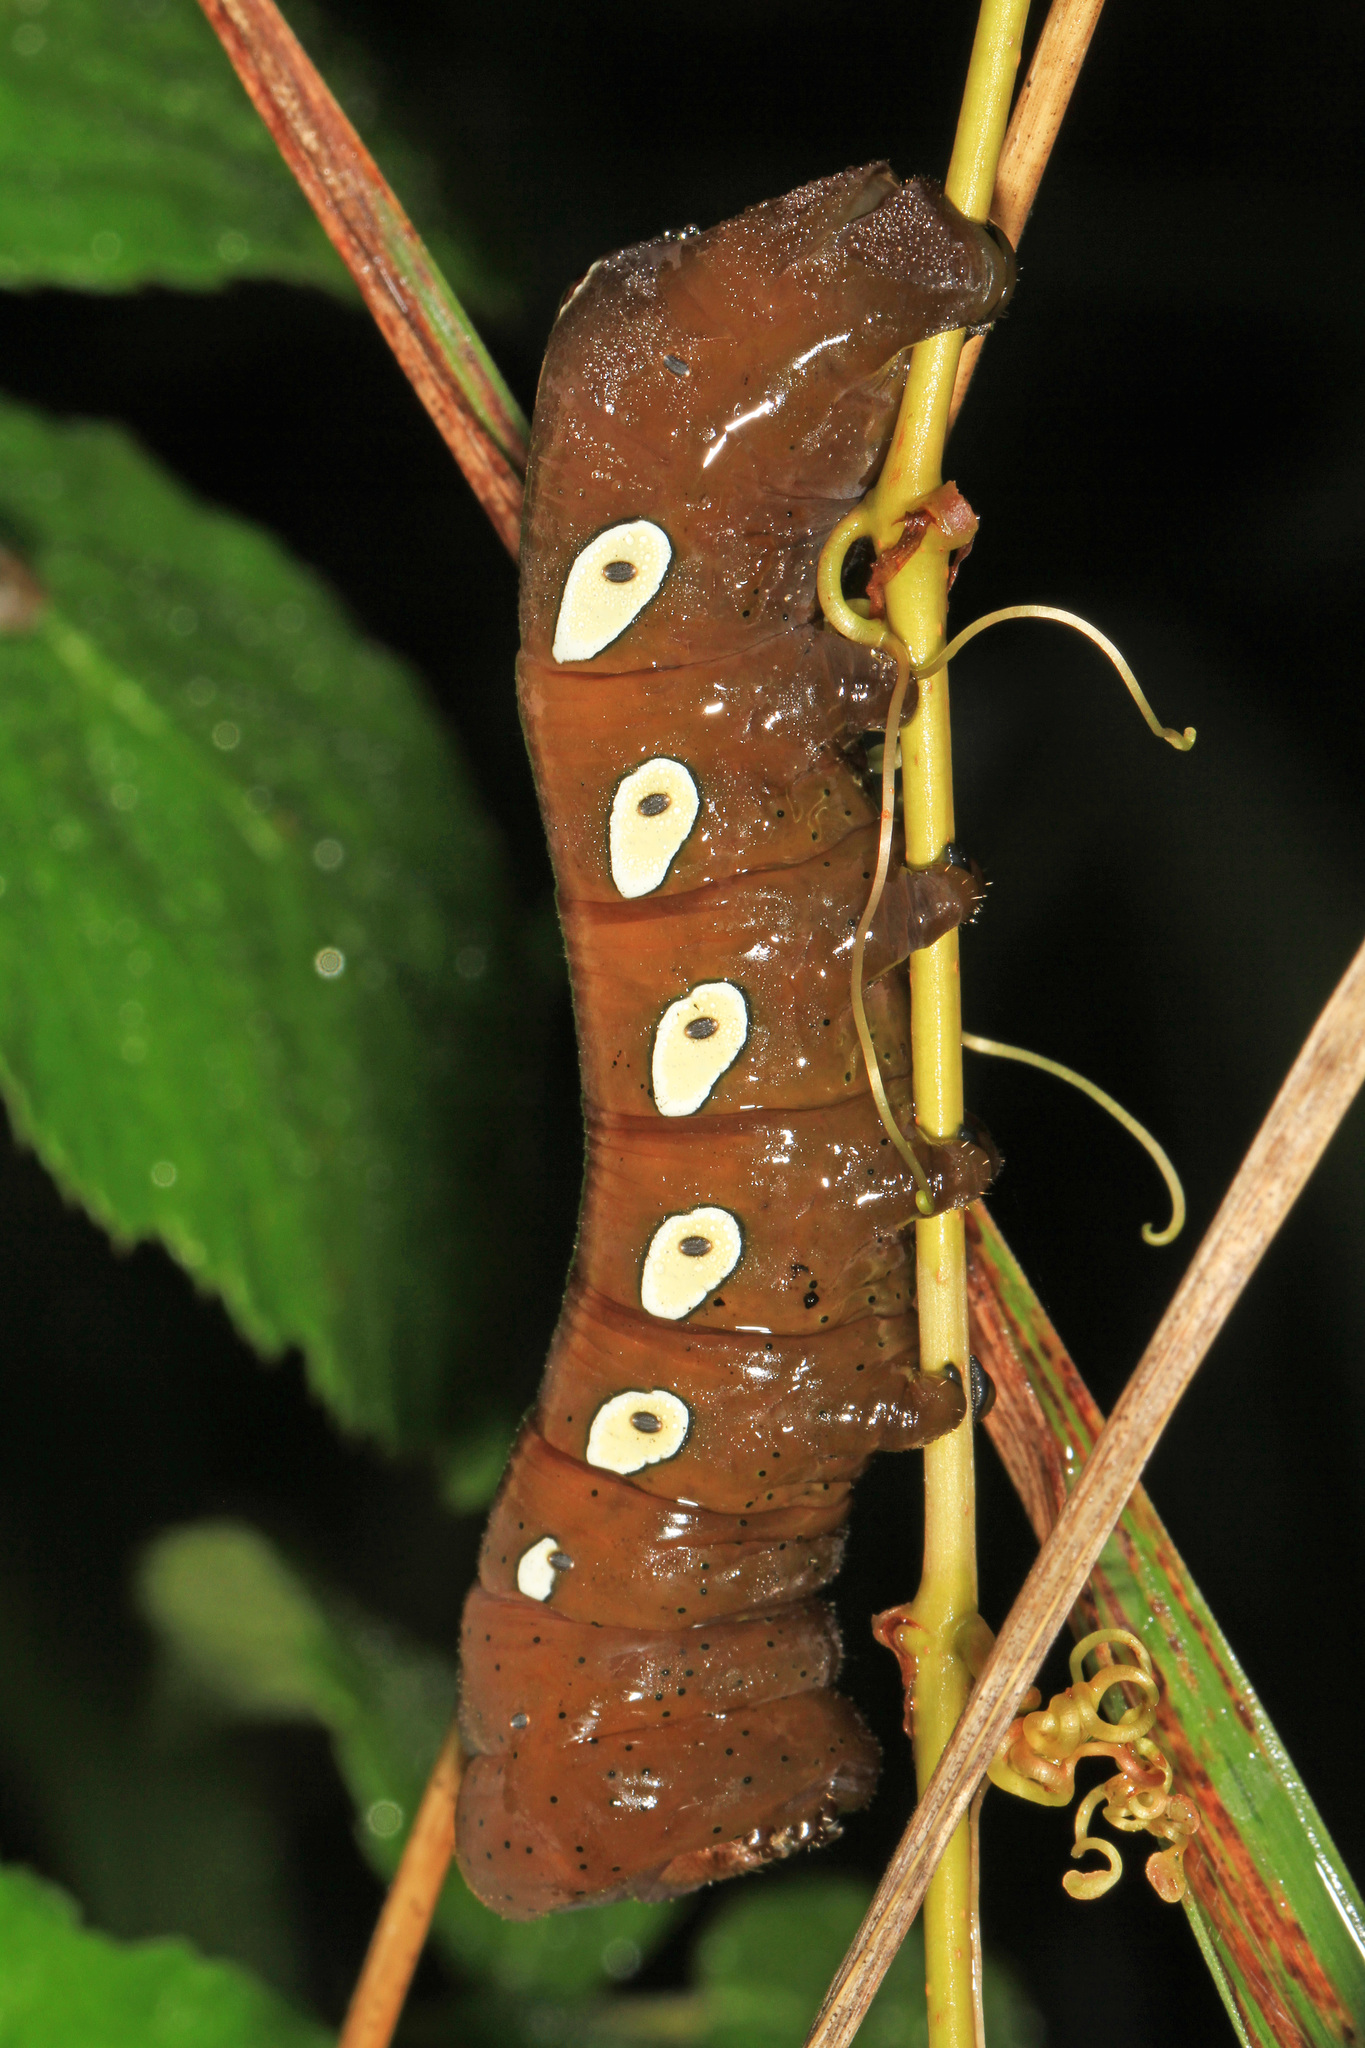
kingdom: Animalia
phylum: Arthropoda
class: Insecta
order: Lepidoptera
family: Sphingidae
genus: Eumorpha
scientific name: Eumorpha pandorus
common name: Pandora sphinx
